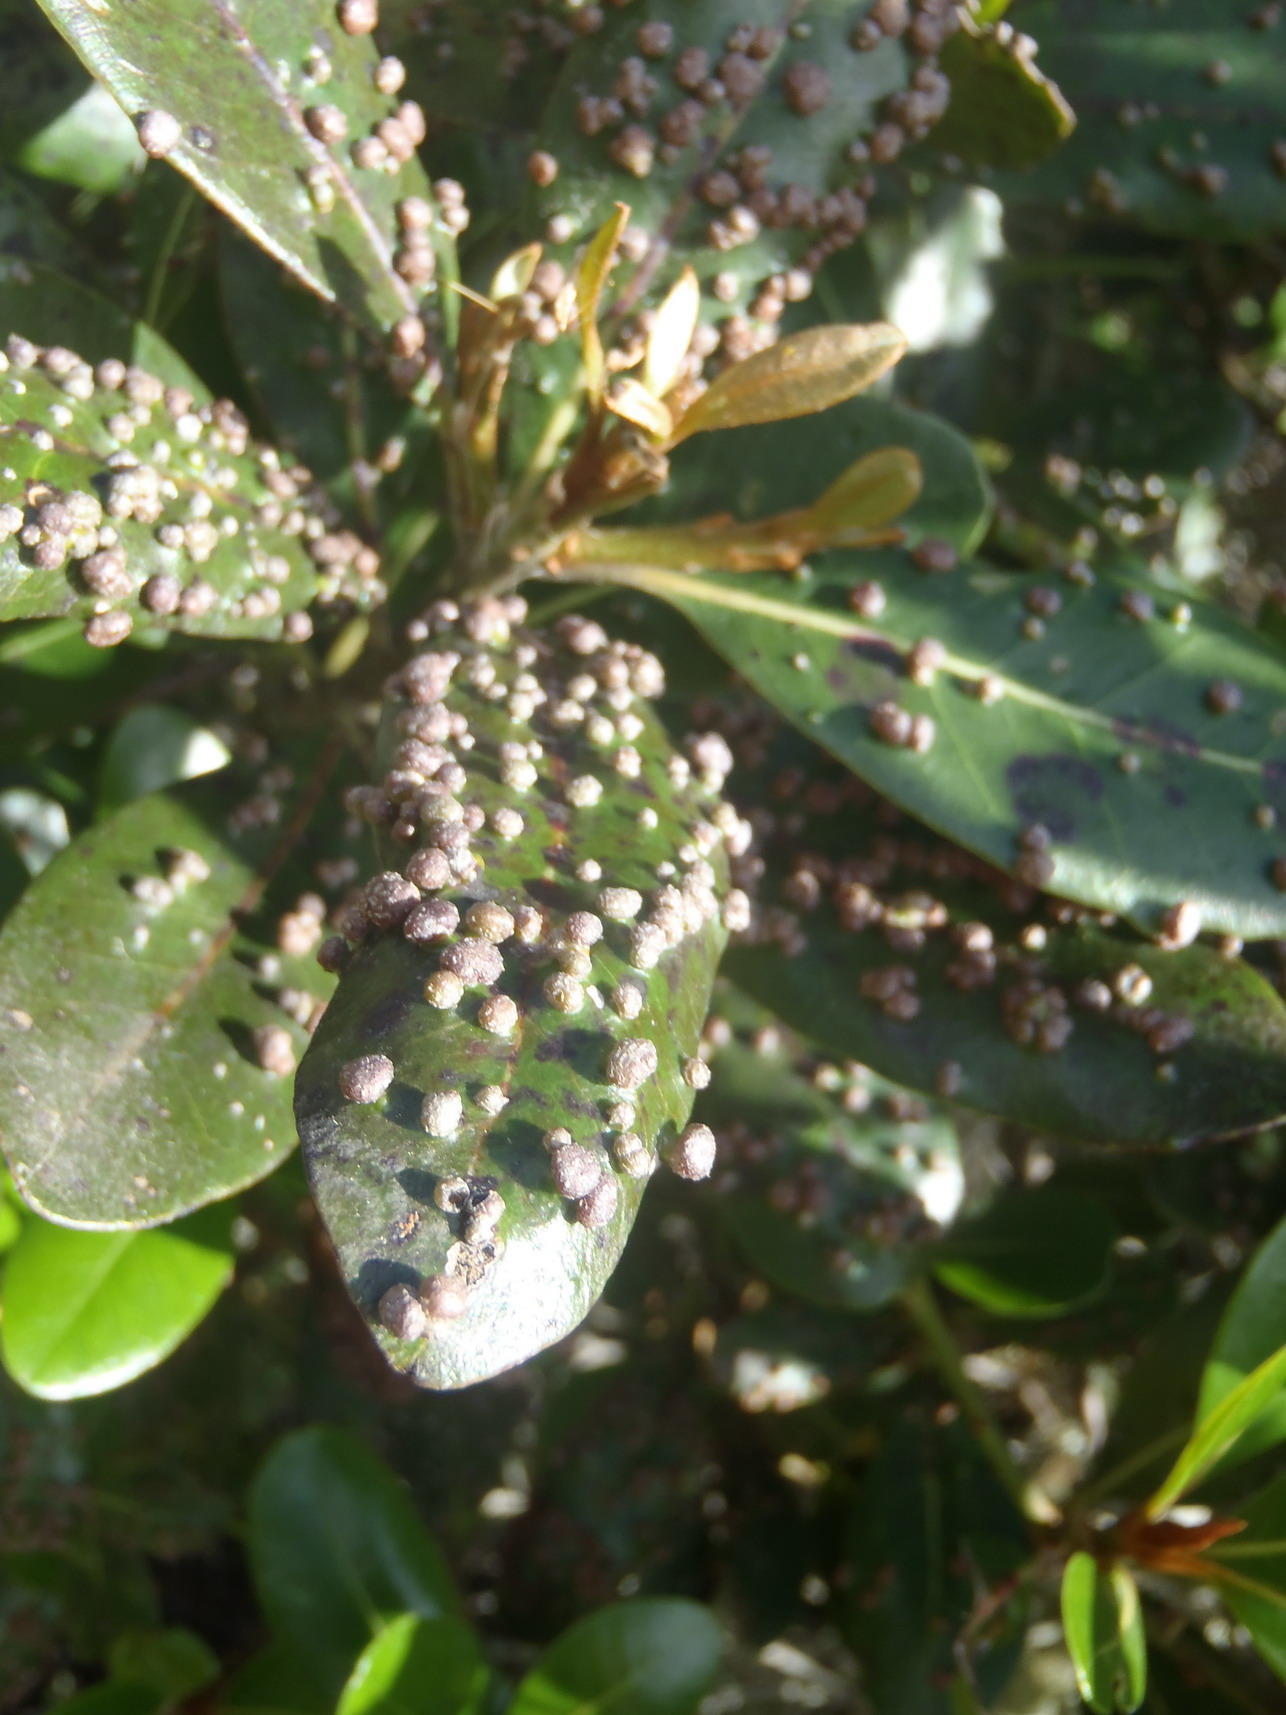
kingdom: Animalia
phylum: Arthropoda
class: Arachnida
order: Trombidiformes
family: Eriophyidae
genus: Eriophyes
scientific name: Eriophyes
